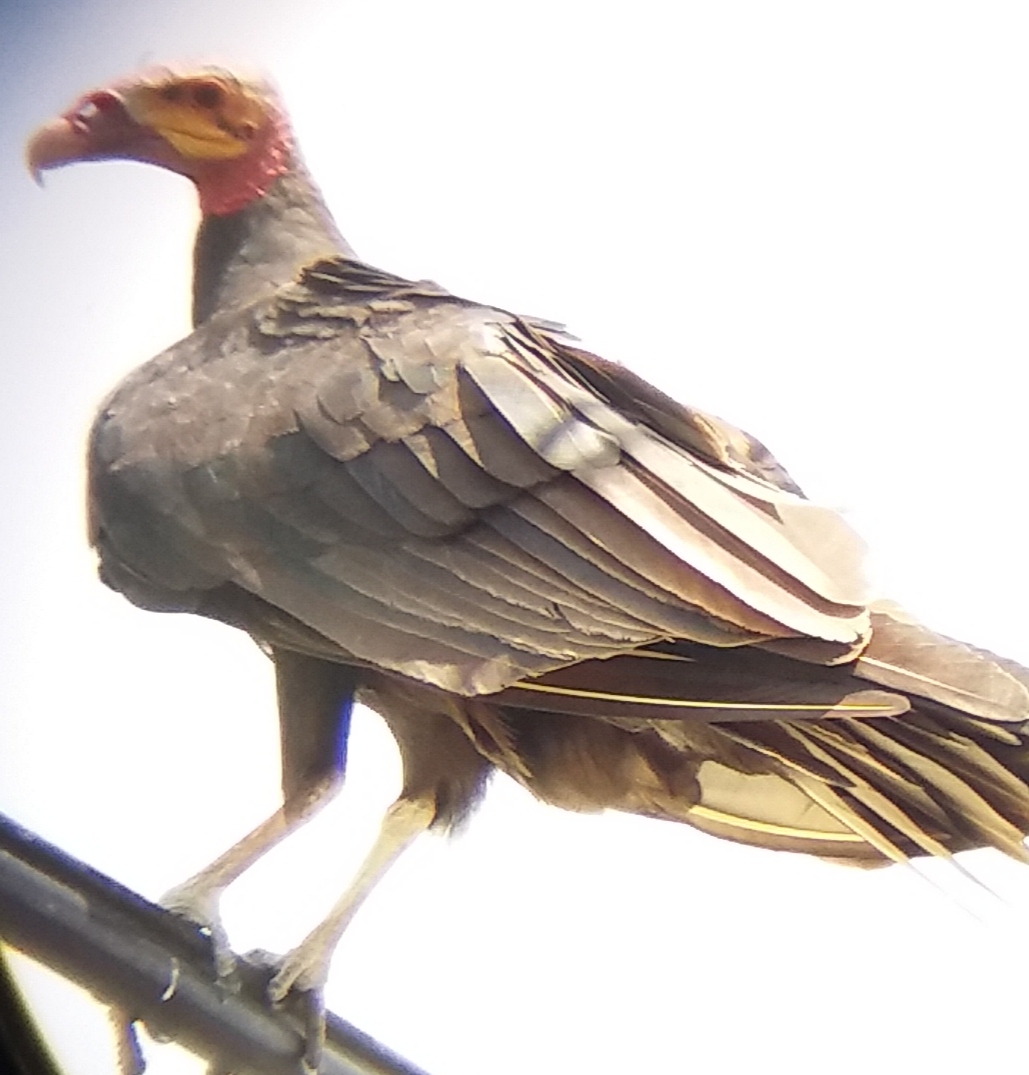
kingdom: Animalia
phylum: Chordata
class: Aves
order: Accipitriformes
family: Cathartidae
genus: Cathartes
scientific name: Cathartes burrovianus
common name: Lesser yellow-headed vulture
